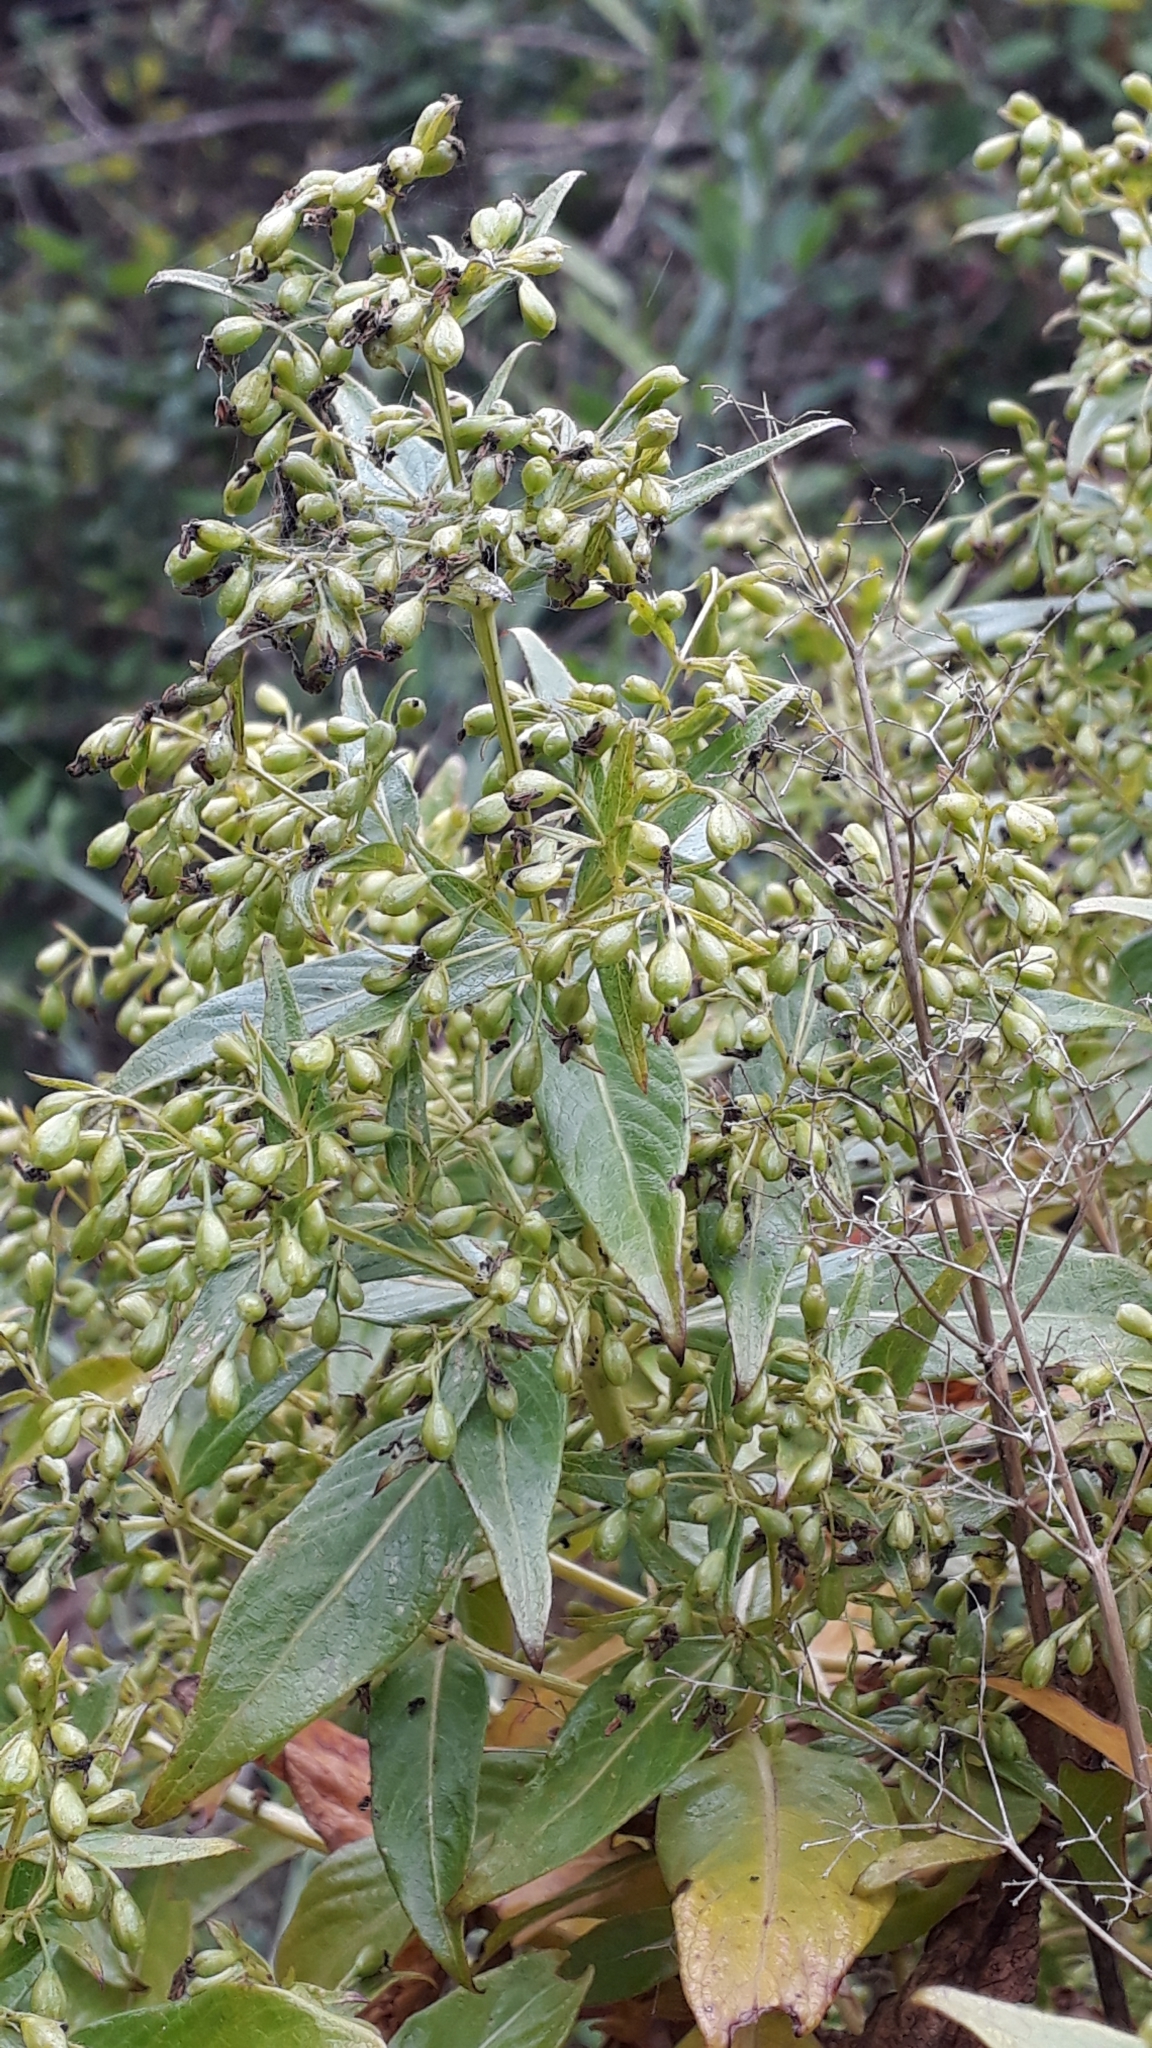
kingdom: Plantae
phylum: Tracheophyta
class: Magnoliopsida
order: Gentianales
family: Rubiaceae
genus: Phyllis
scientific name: Phyllis nobla
